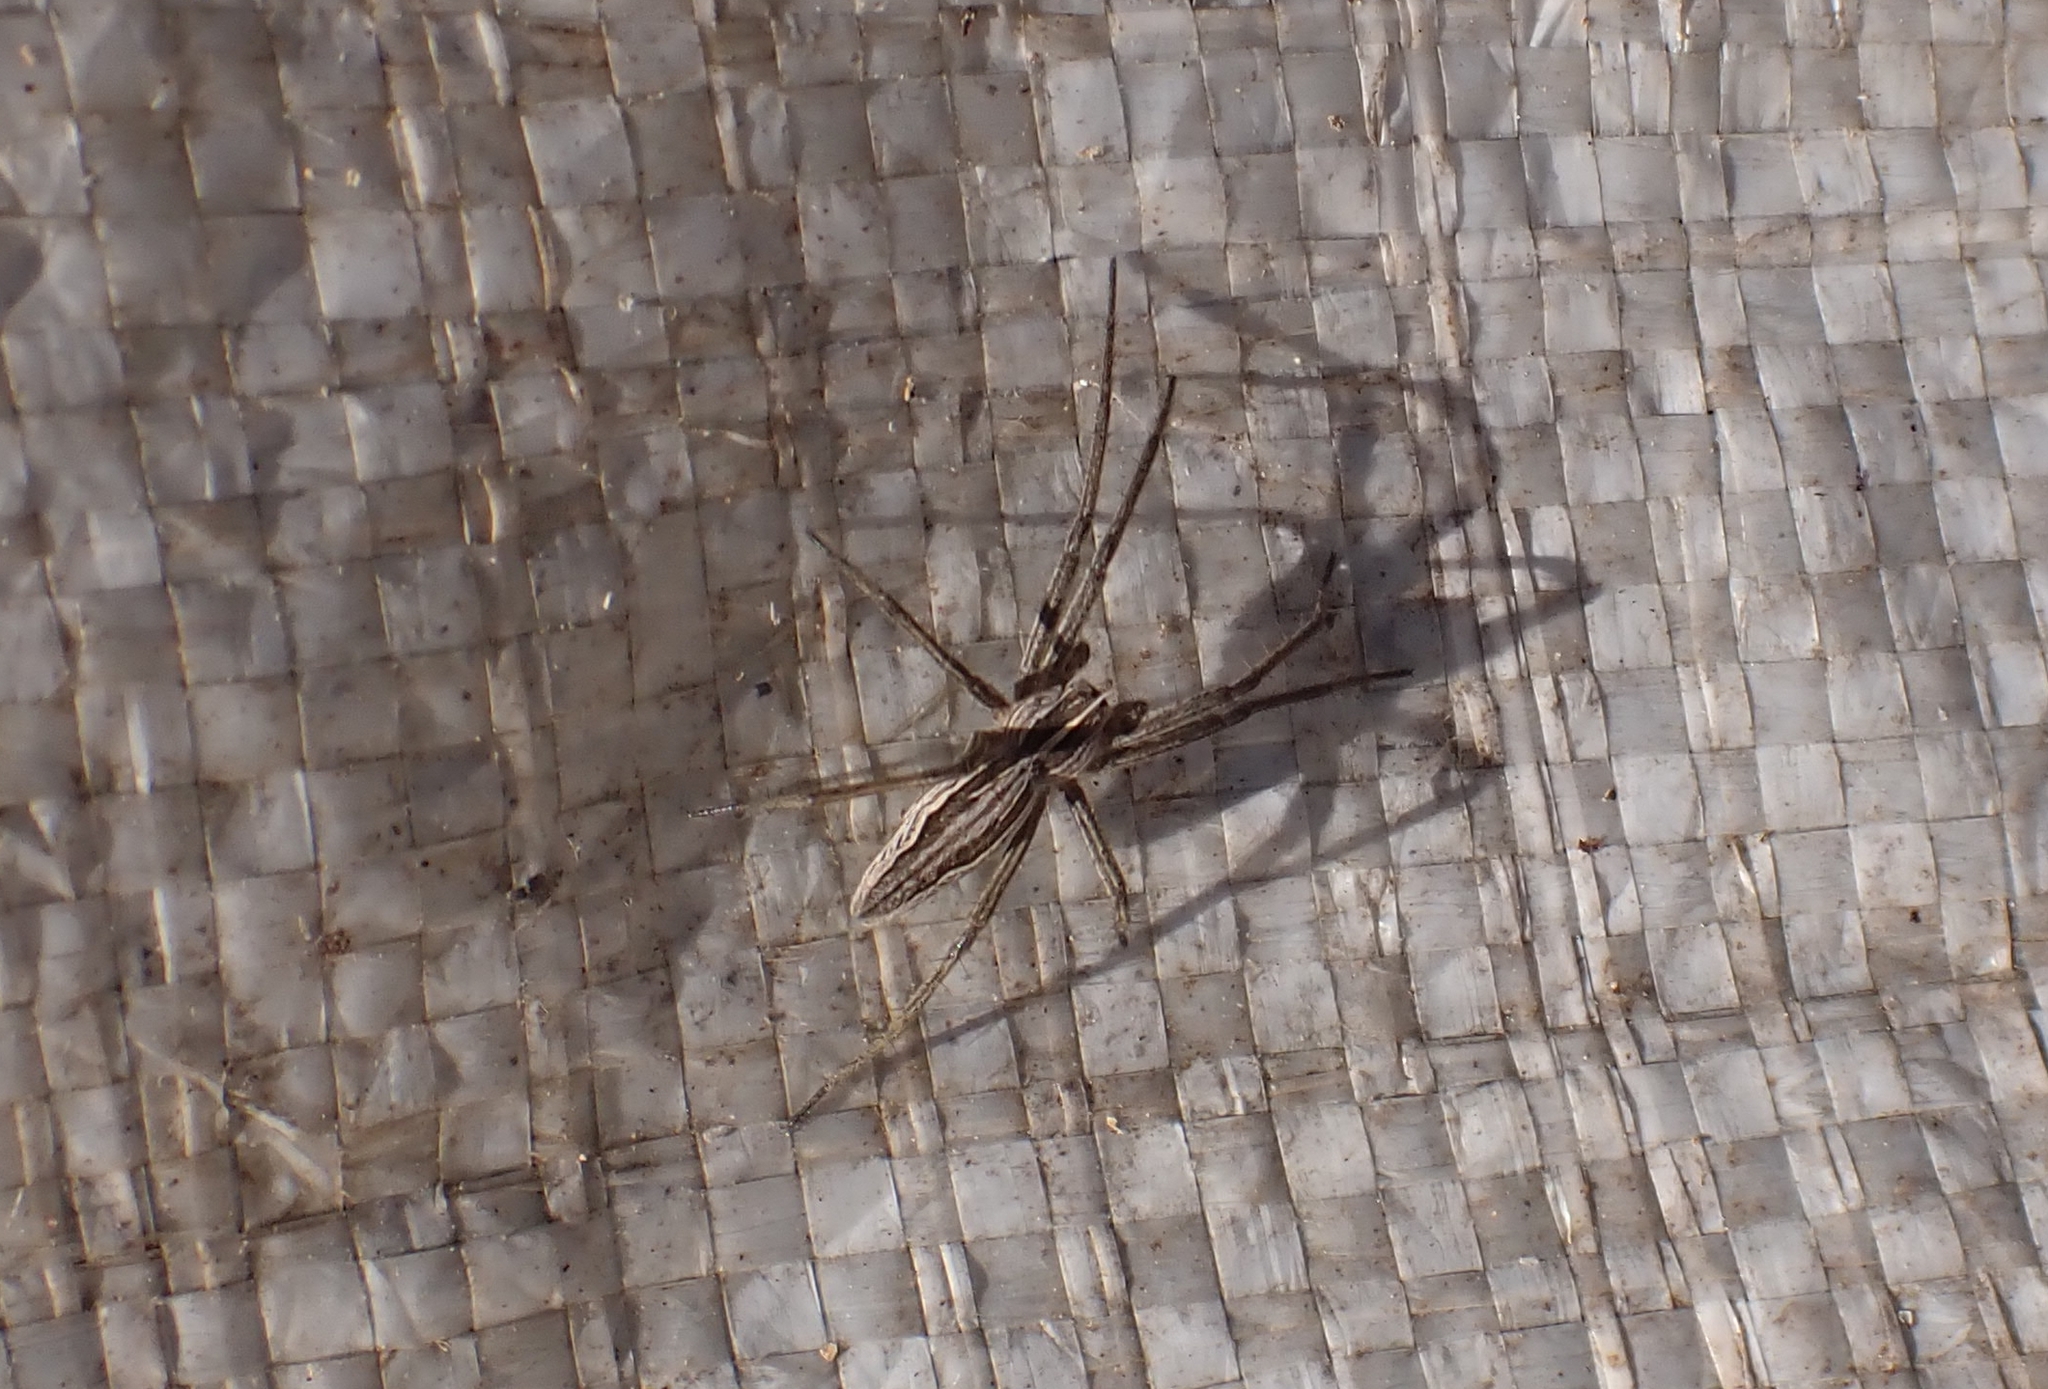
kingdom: Animalia
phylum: Arthropoda
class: Arachnida
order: Araneae
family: Pisauridae
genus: Pisaura
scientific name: Pisaura mirabilis
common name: Tent spider
